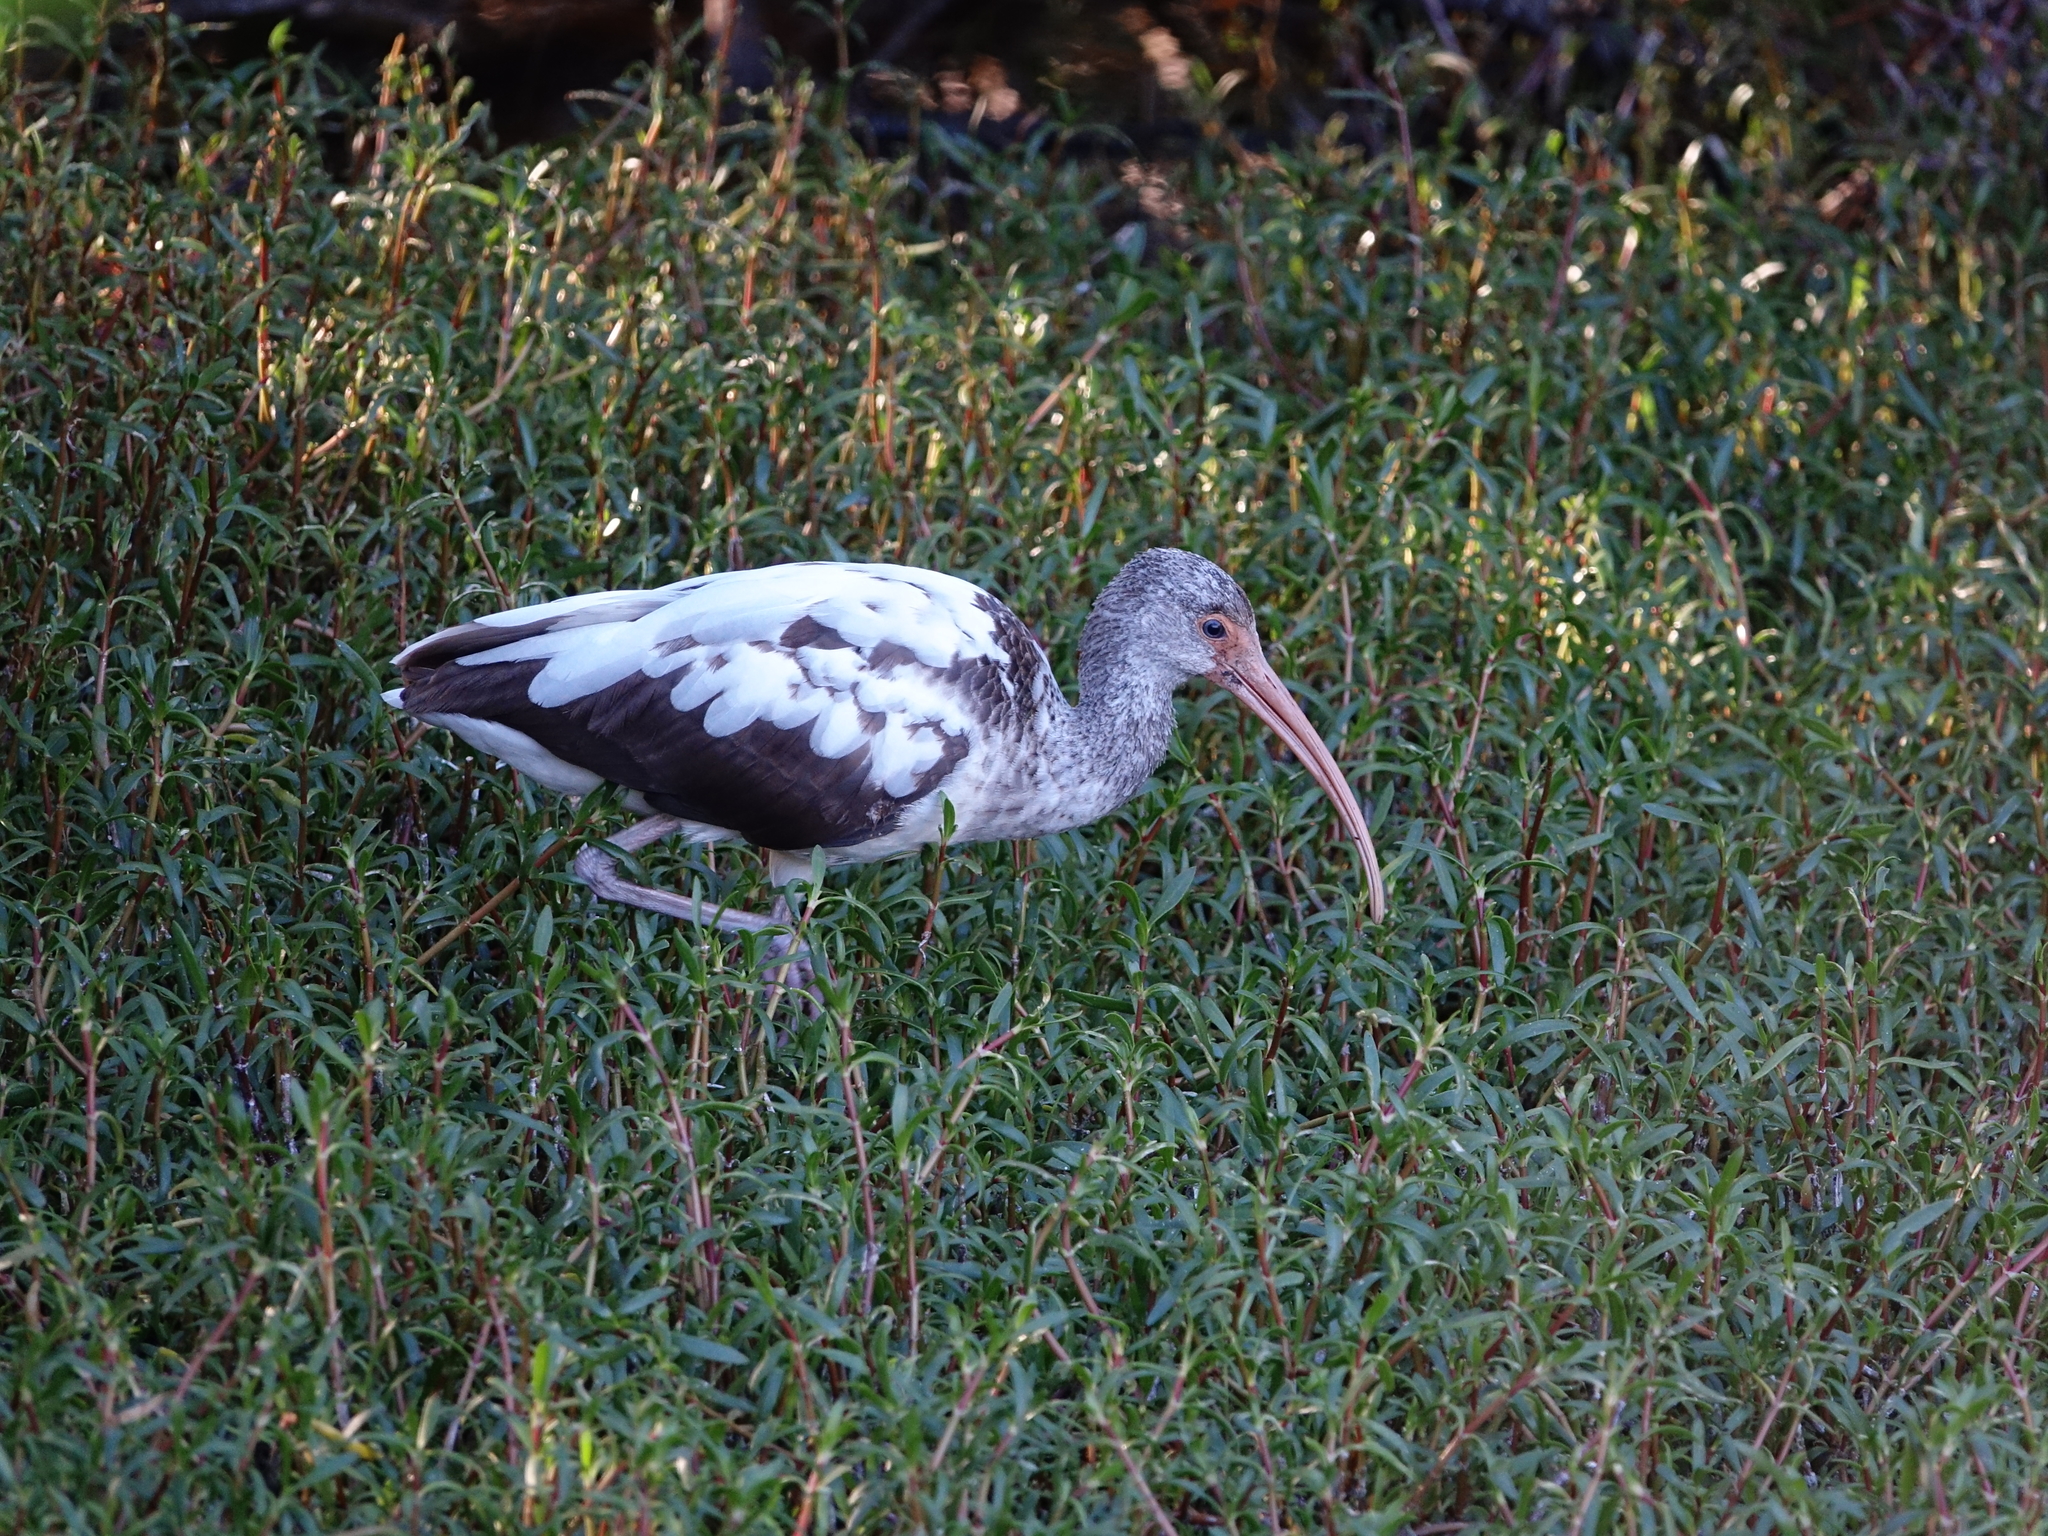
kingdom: Animalia
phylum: Chordata
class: Aves
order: Pelecaniformes
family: Threskiornithidae
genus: Eudocimus
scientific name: Eudocimus albus
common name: White ibis
